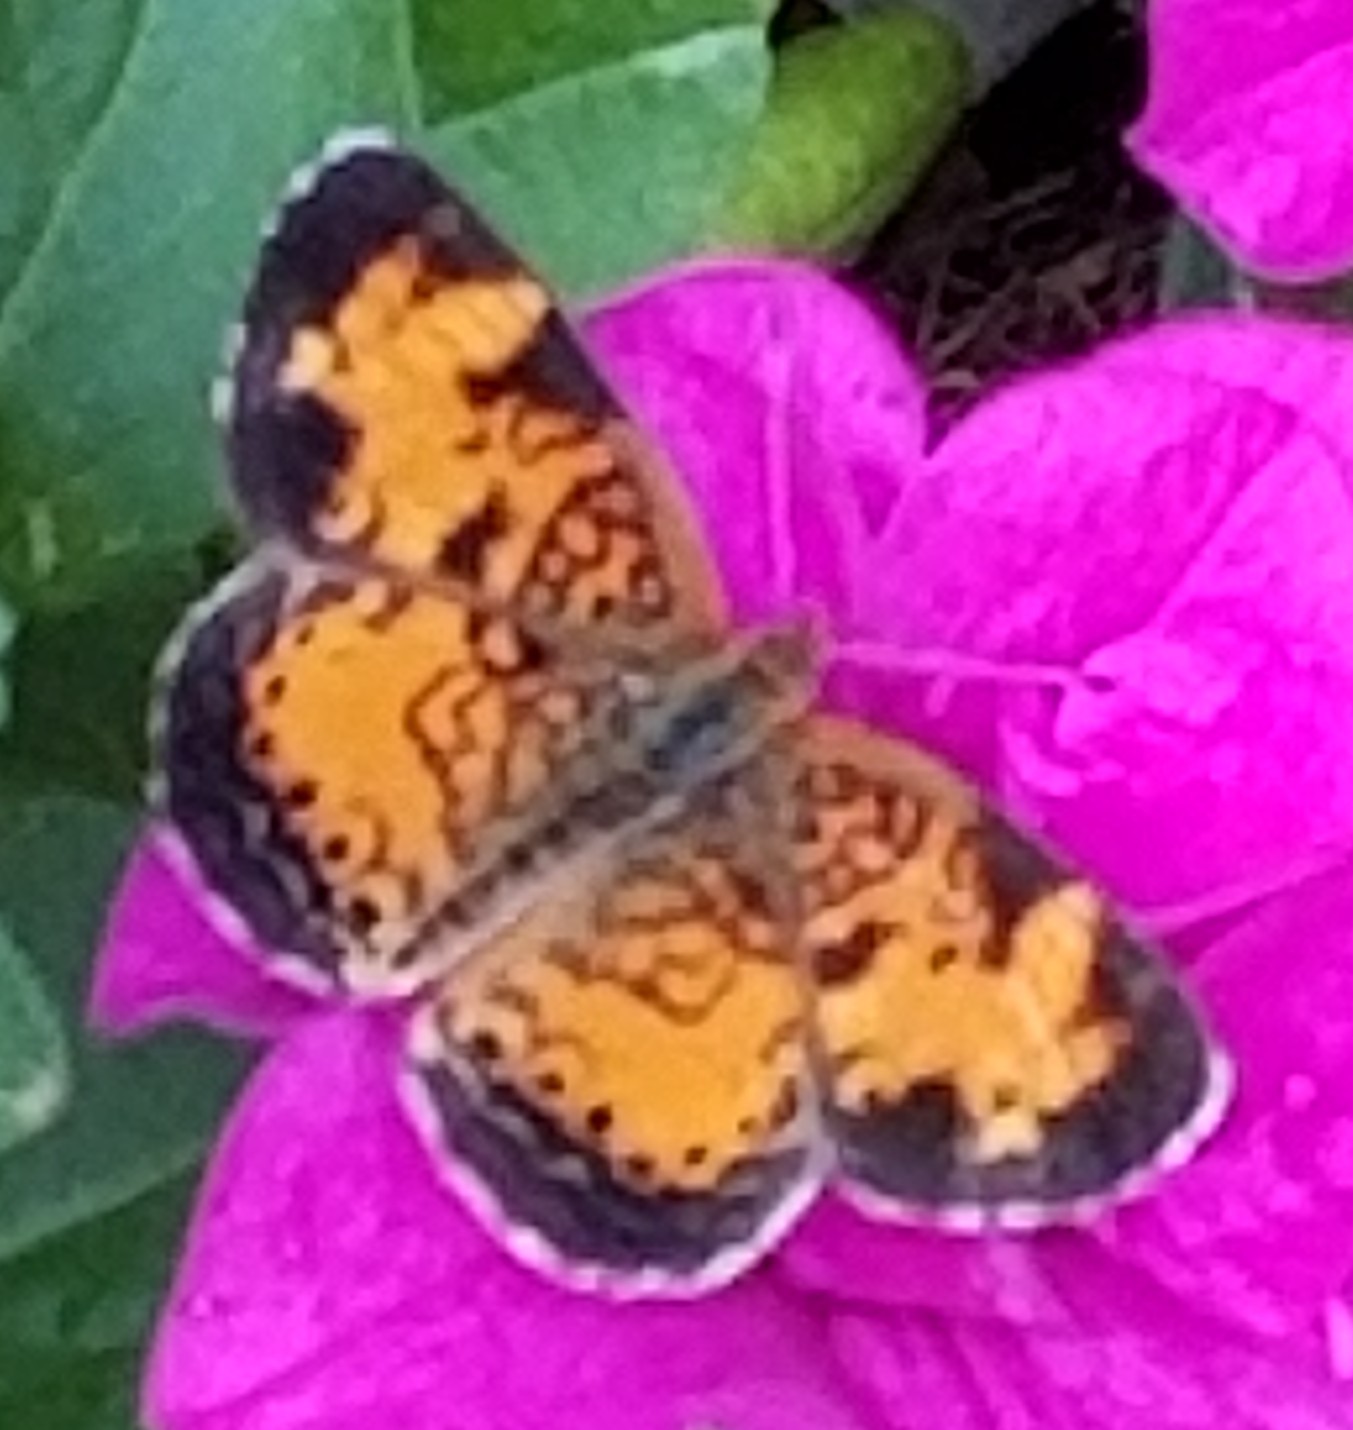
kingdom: Animalia
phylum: Arthropoda
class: Insecta
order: Lepidoptera
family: Nymphalidae
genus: Phyciodes
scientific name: Phyciodes tharos
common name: Pearl crescent
